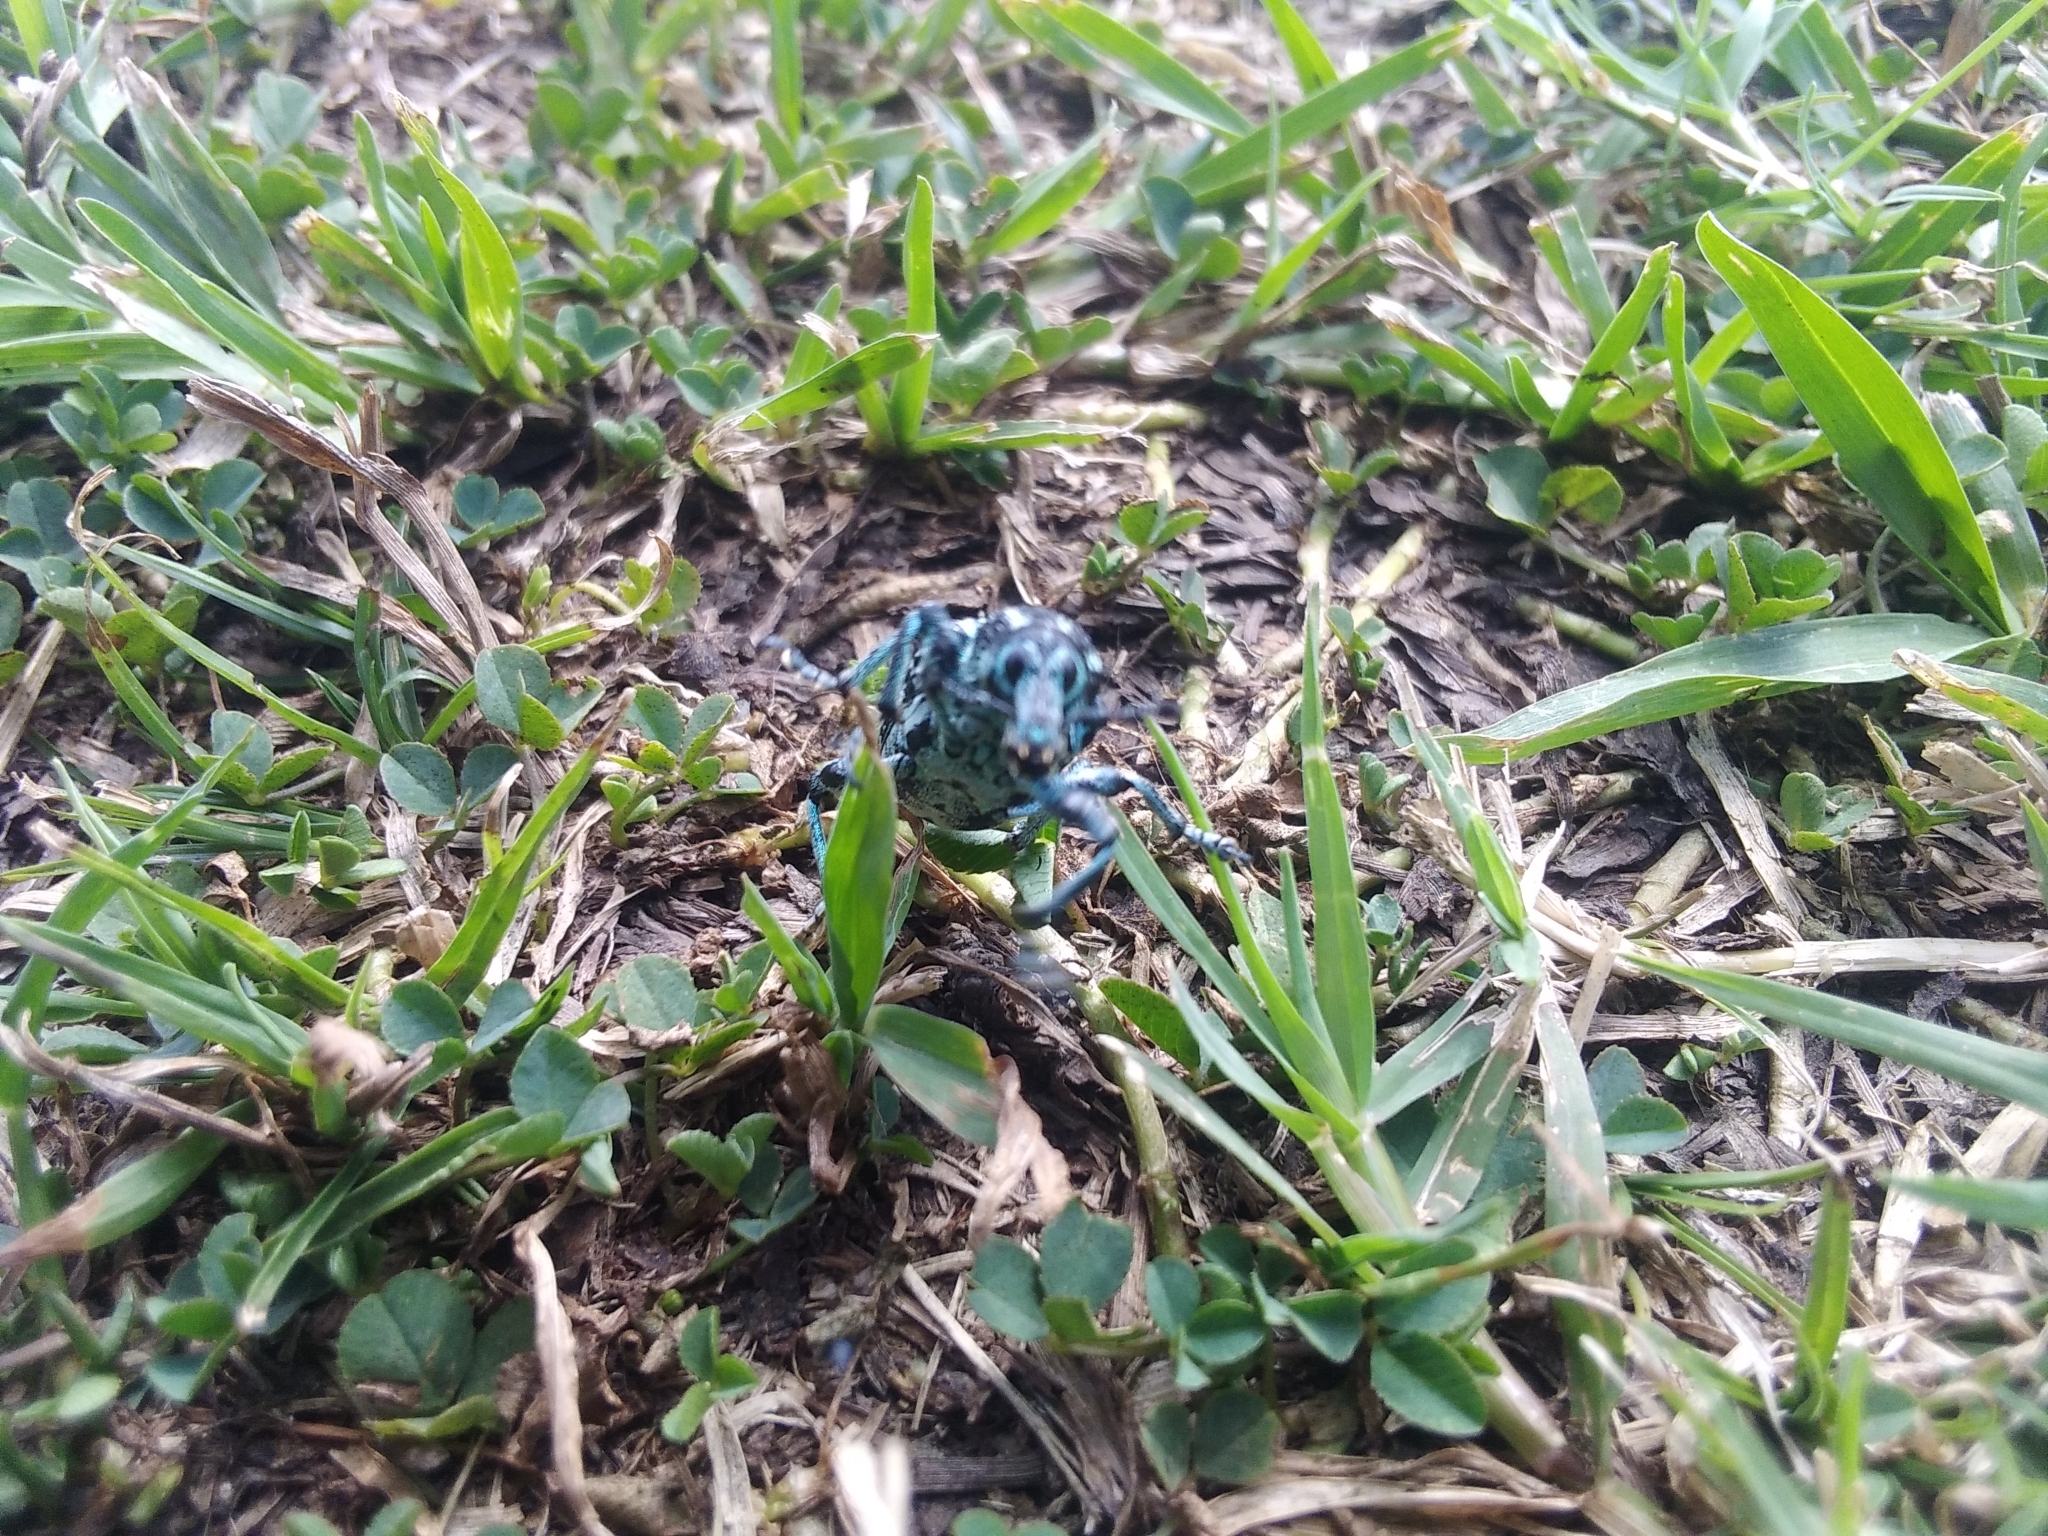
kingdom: Animalia
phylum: Arthropoda
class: Insecta
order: Coleoptera
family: Curculionidae
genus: Chrysolopus
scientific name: Chrysolopus spectabilis
